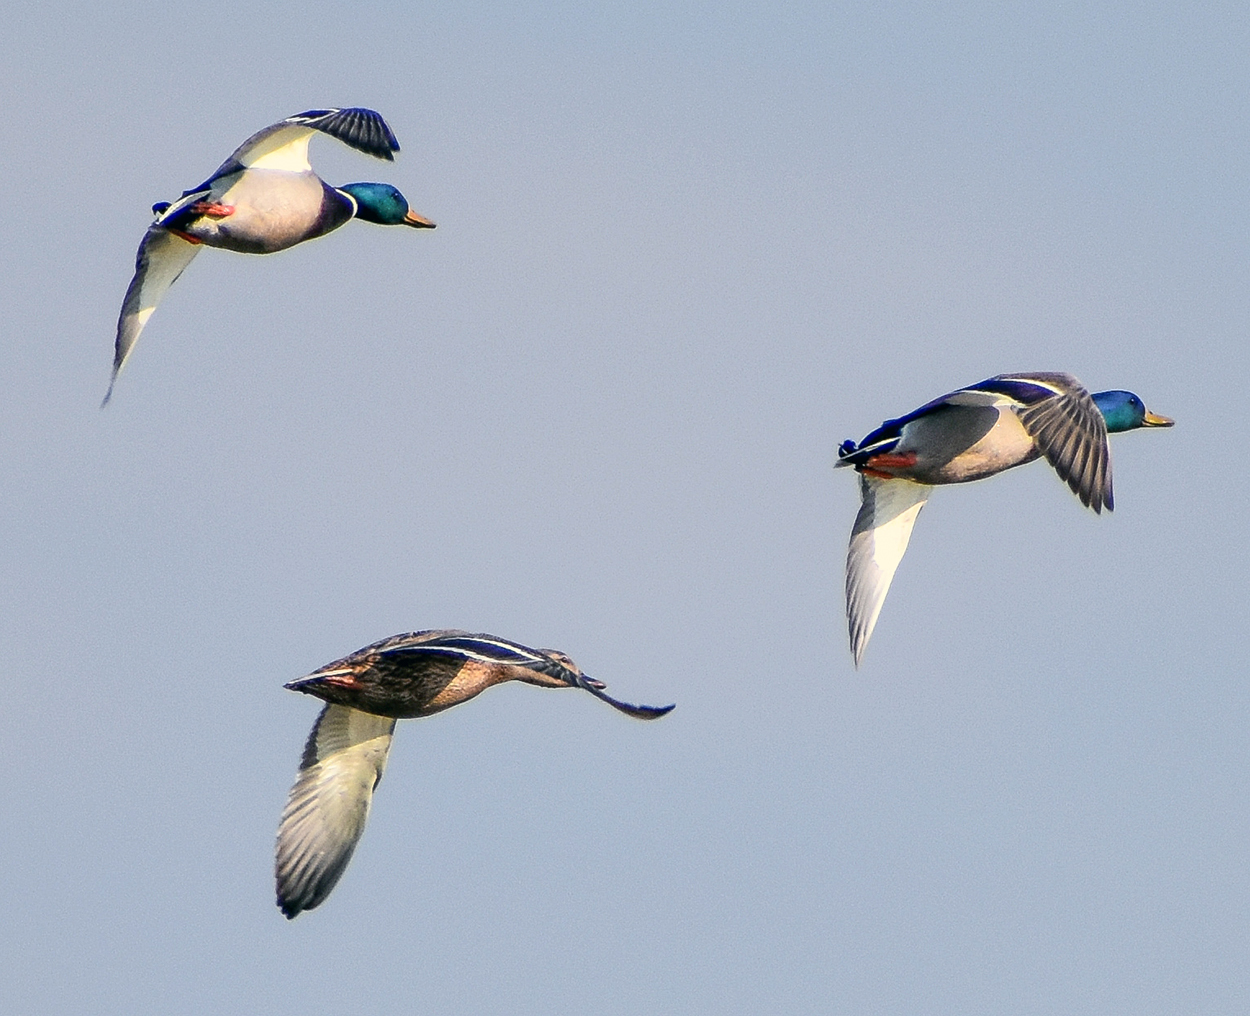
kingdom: Animalia
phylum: Chordata
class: Aves
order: Anseriformes
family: Anatidae
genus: Anas
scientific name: Anas platyrhynchos
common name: Mallard
